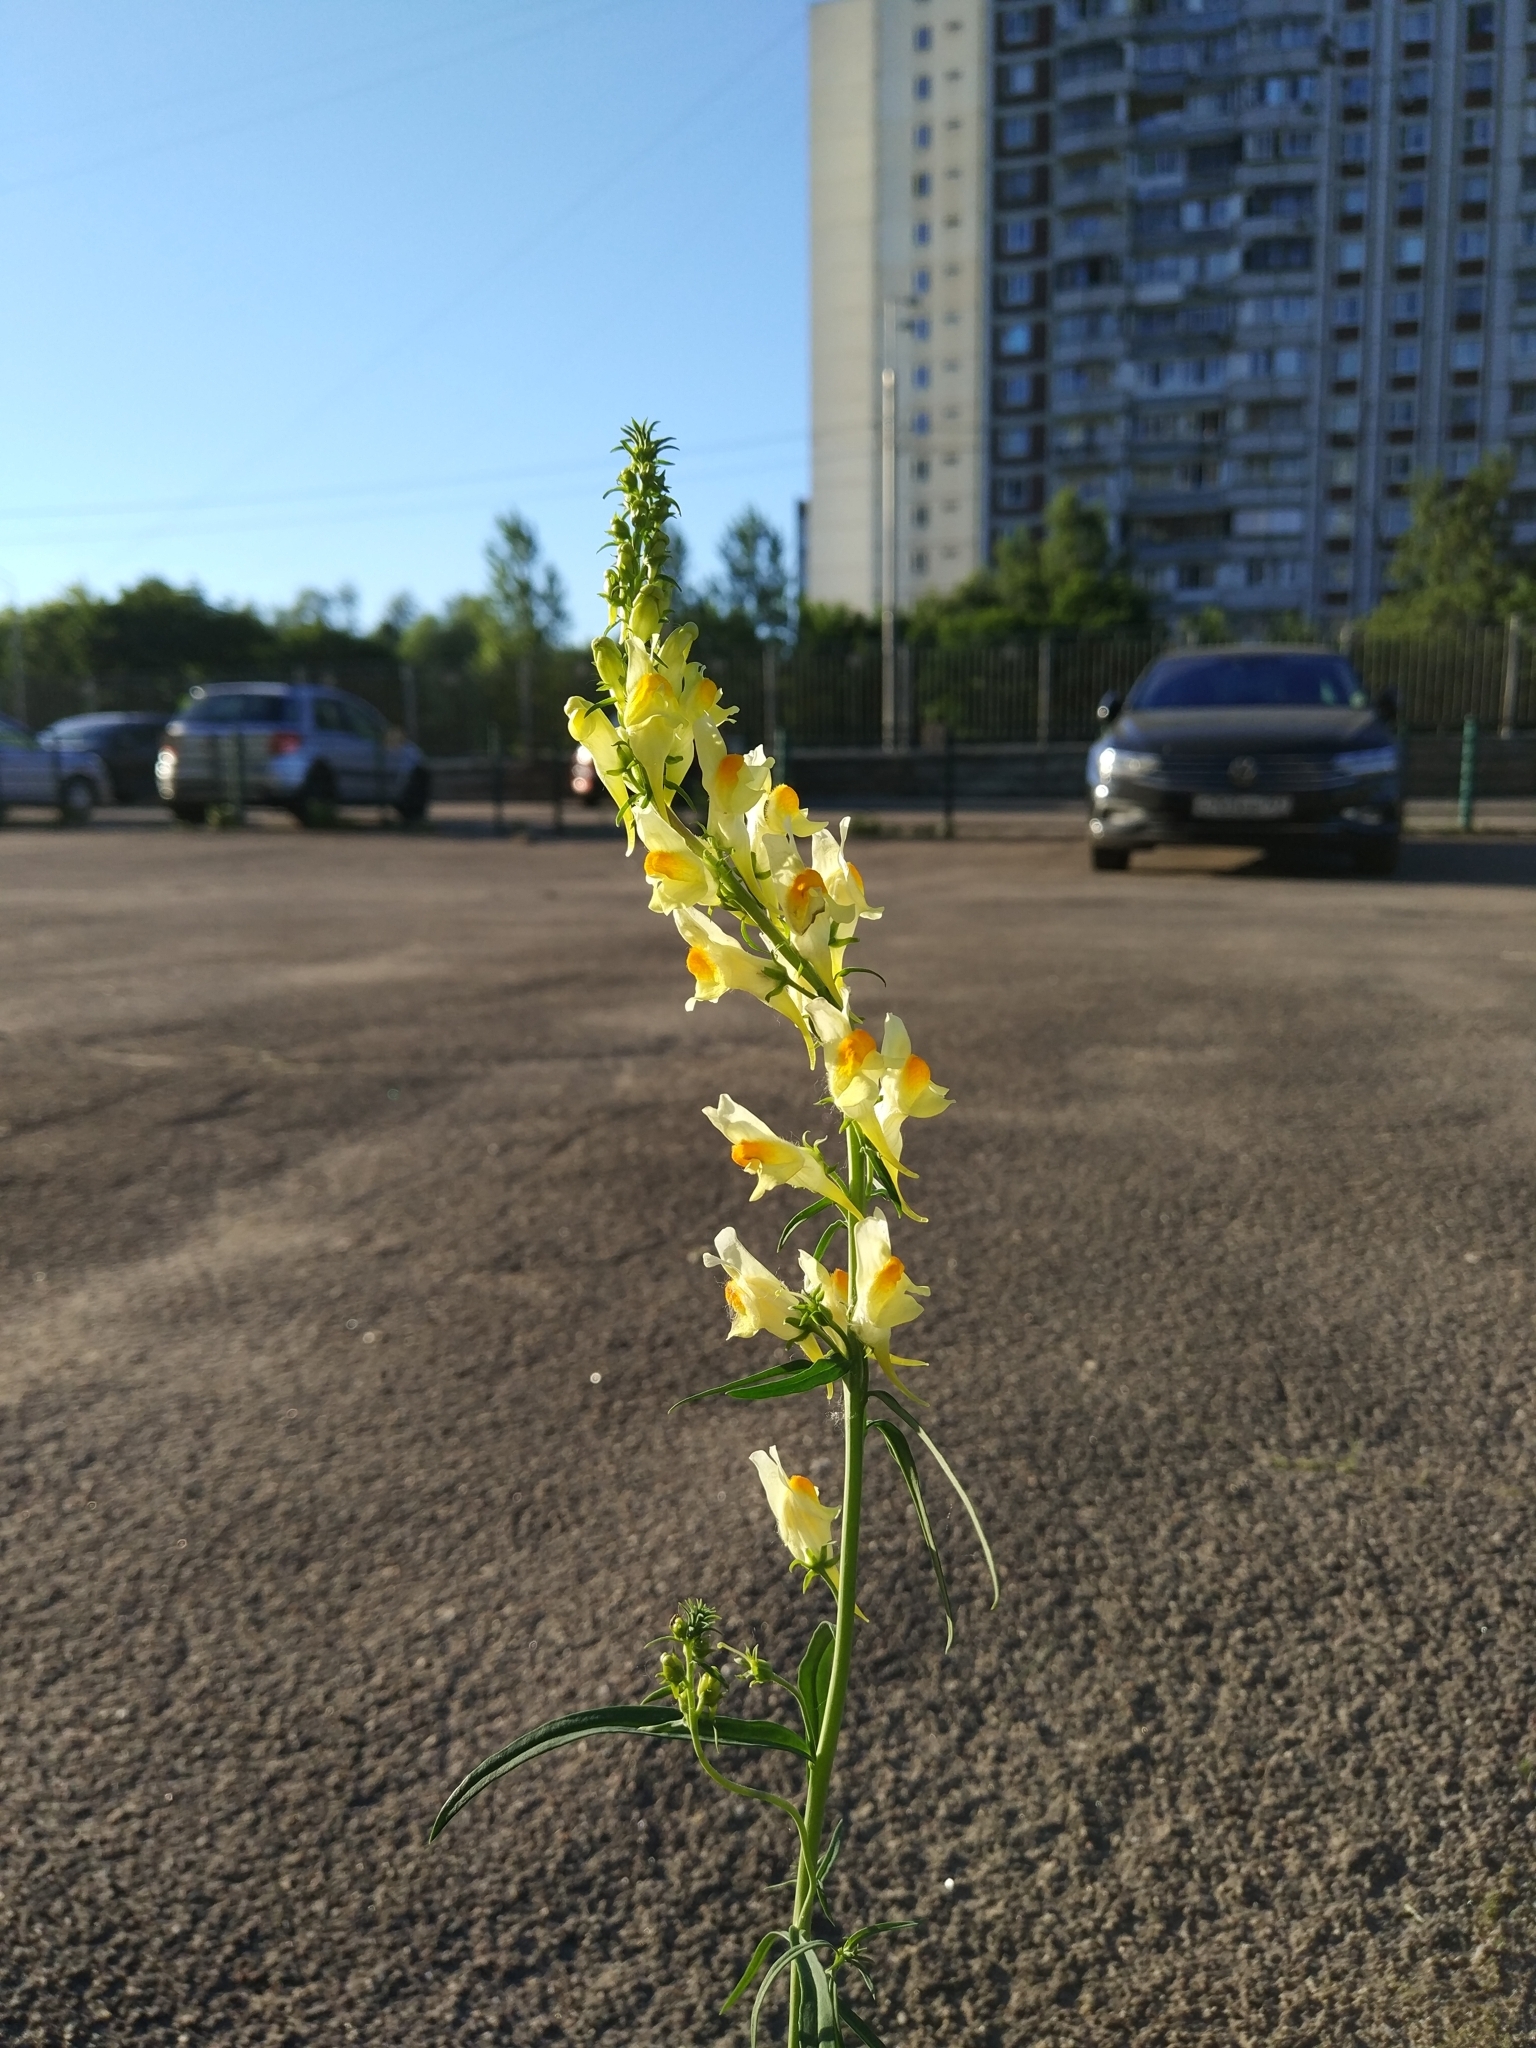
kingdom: Plantae
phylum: Tracheophyta
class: Magnoliopsida
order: Lamiales
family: Plantaginaceae
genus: Linaria
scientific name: Linaria vulgaris
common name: Butter and eggs
